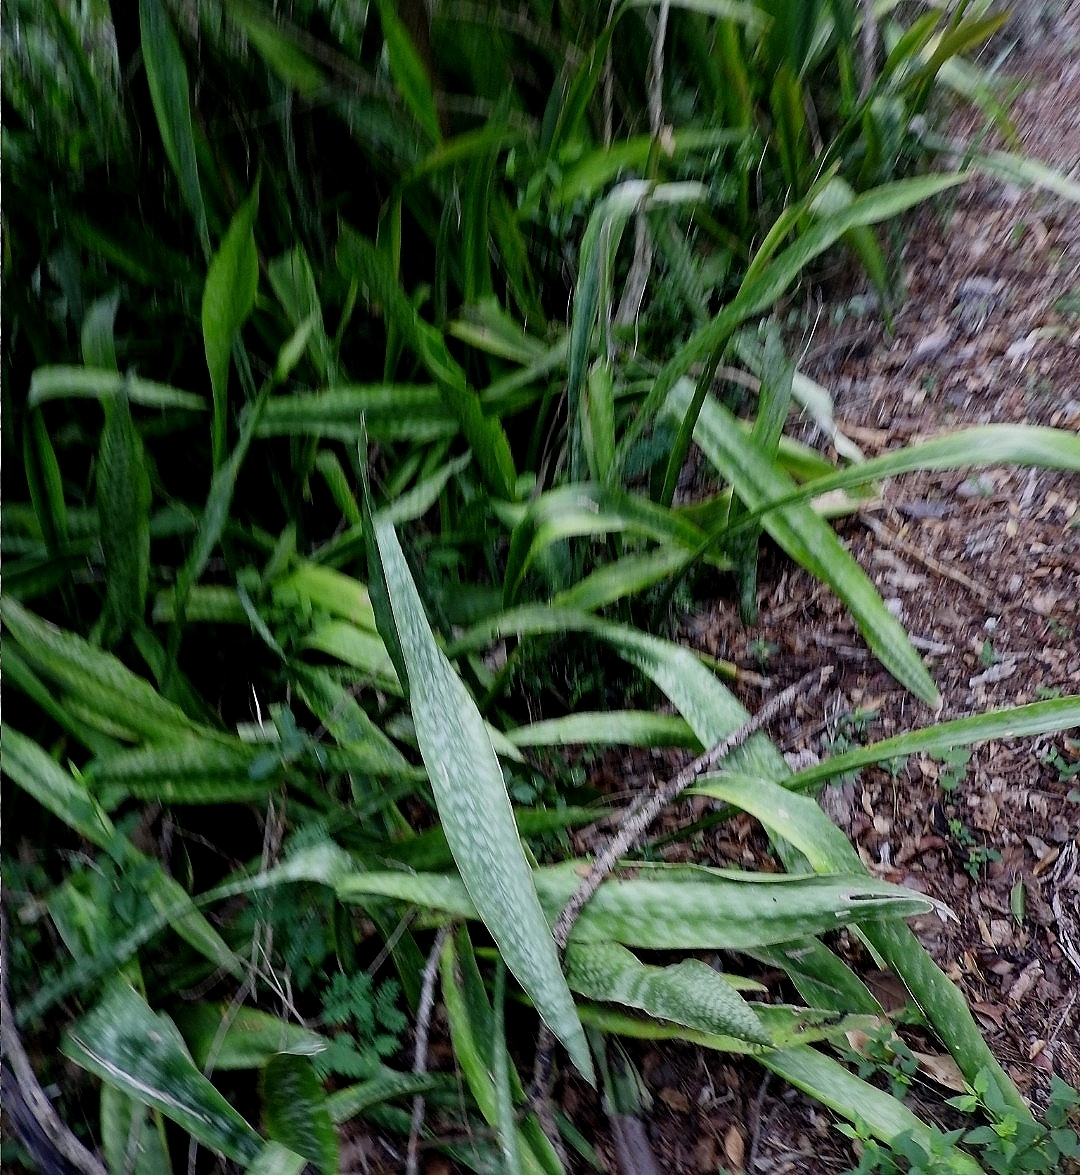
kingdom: Plantae
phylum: Tracheophyta
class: Liliopsida
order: Asparagales
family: Asparagaceae
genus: Dracaena
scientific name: Dracaena hyacinthoides
